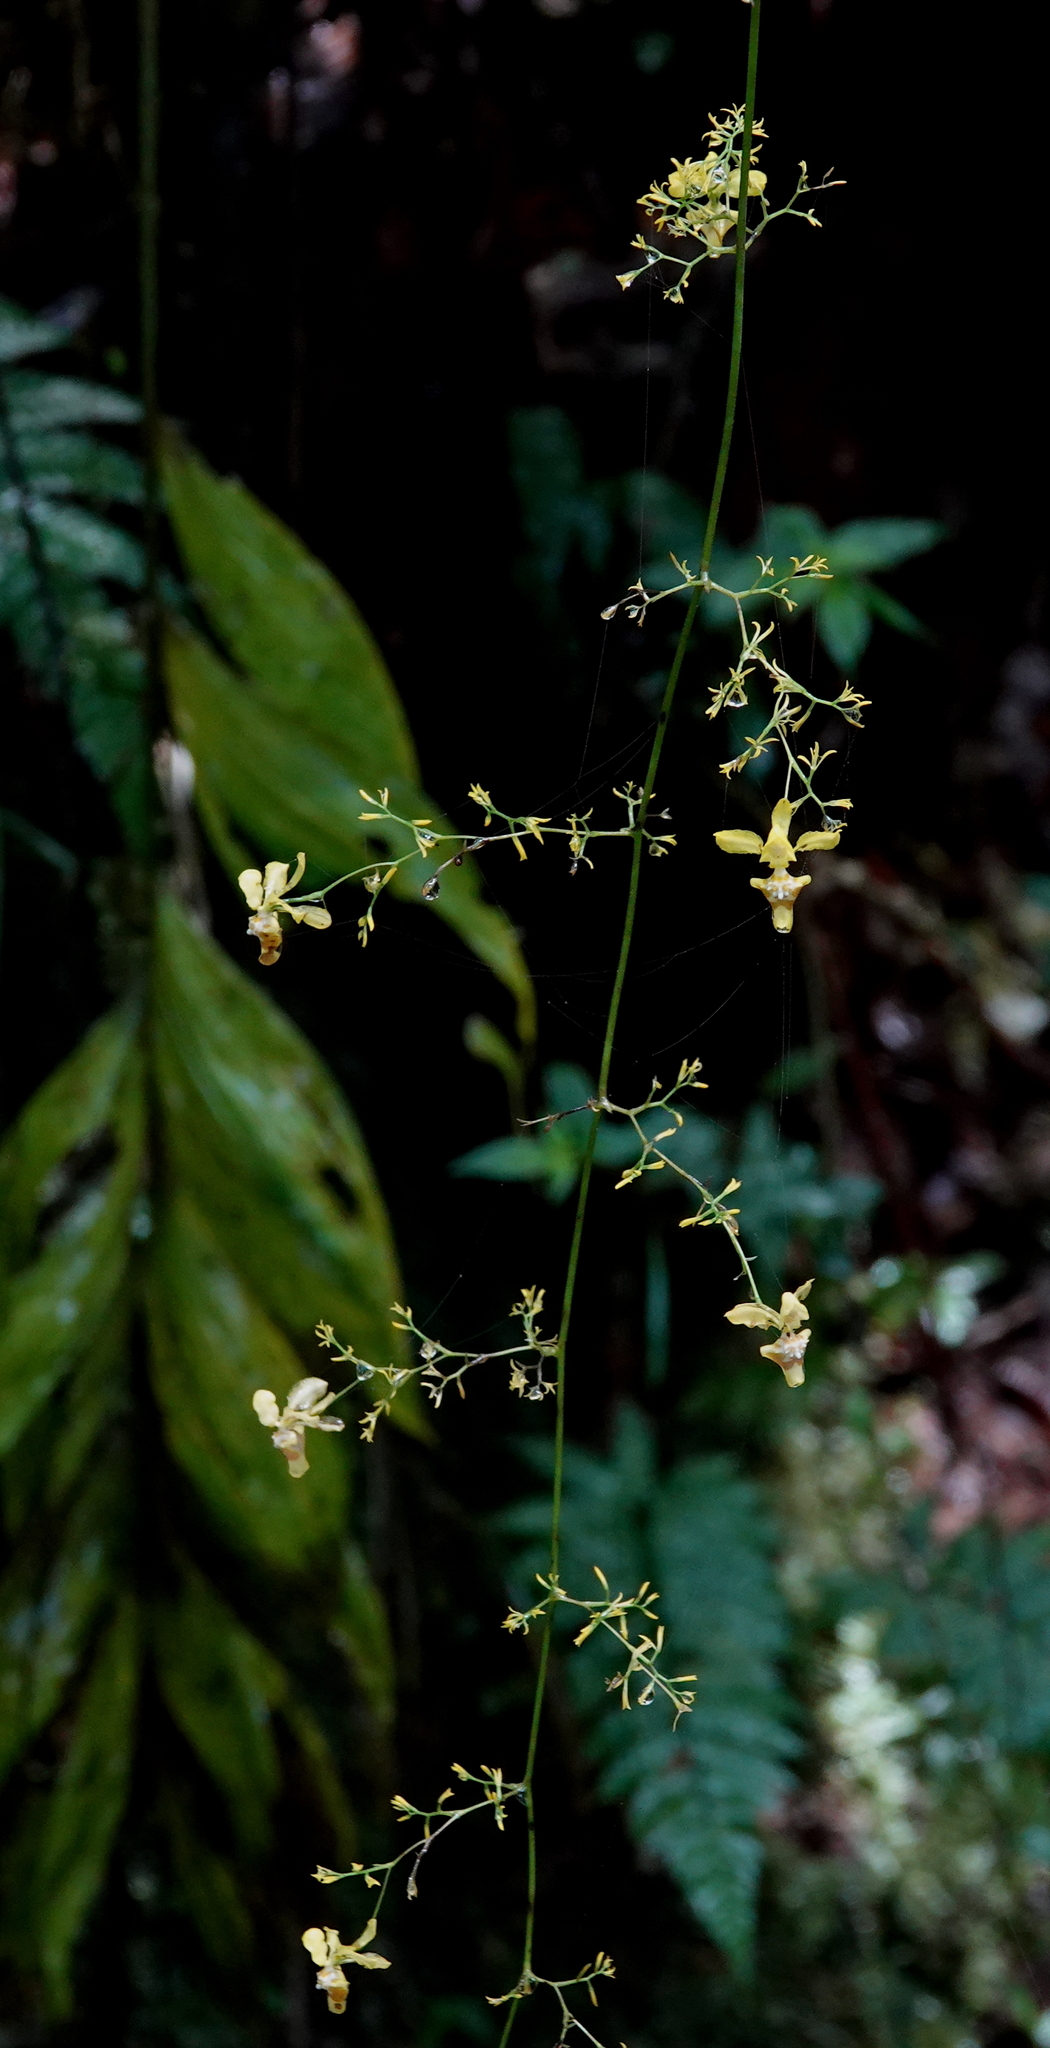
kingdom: Plantae
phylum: Tracheophyta
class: Liliopsida
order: Asparagales
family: Orchidaceae
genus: Oncidium
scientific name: Oncidium adelaidae
